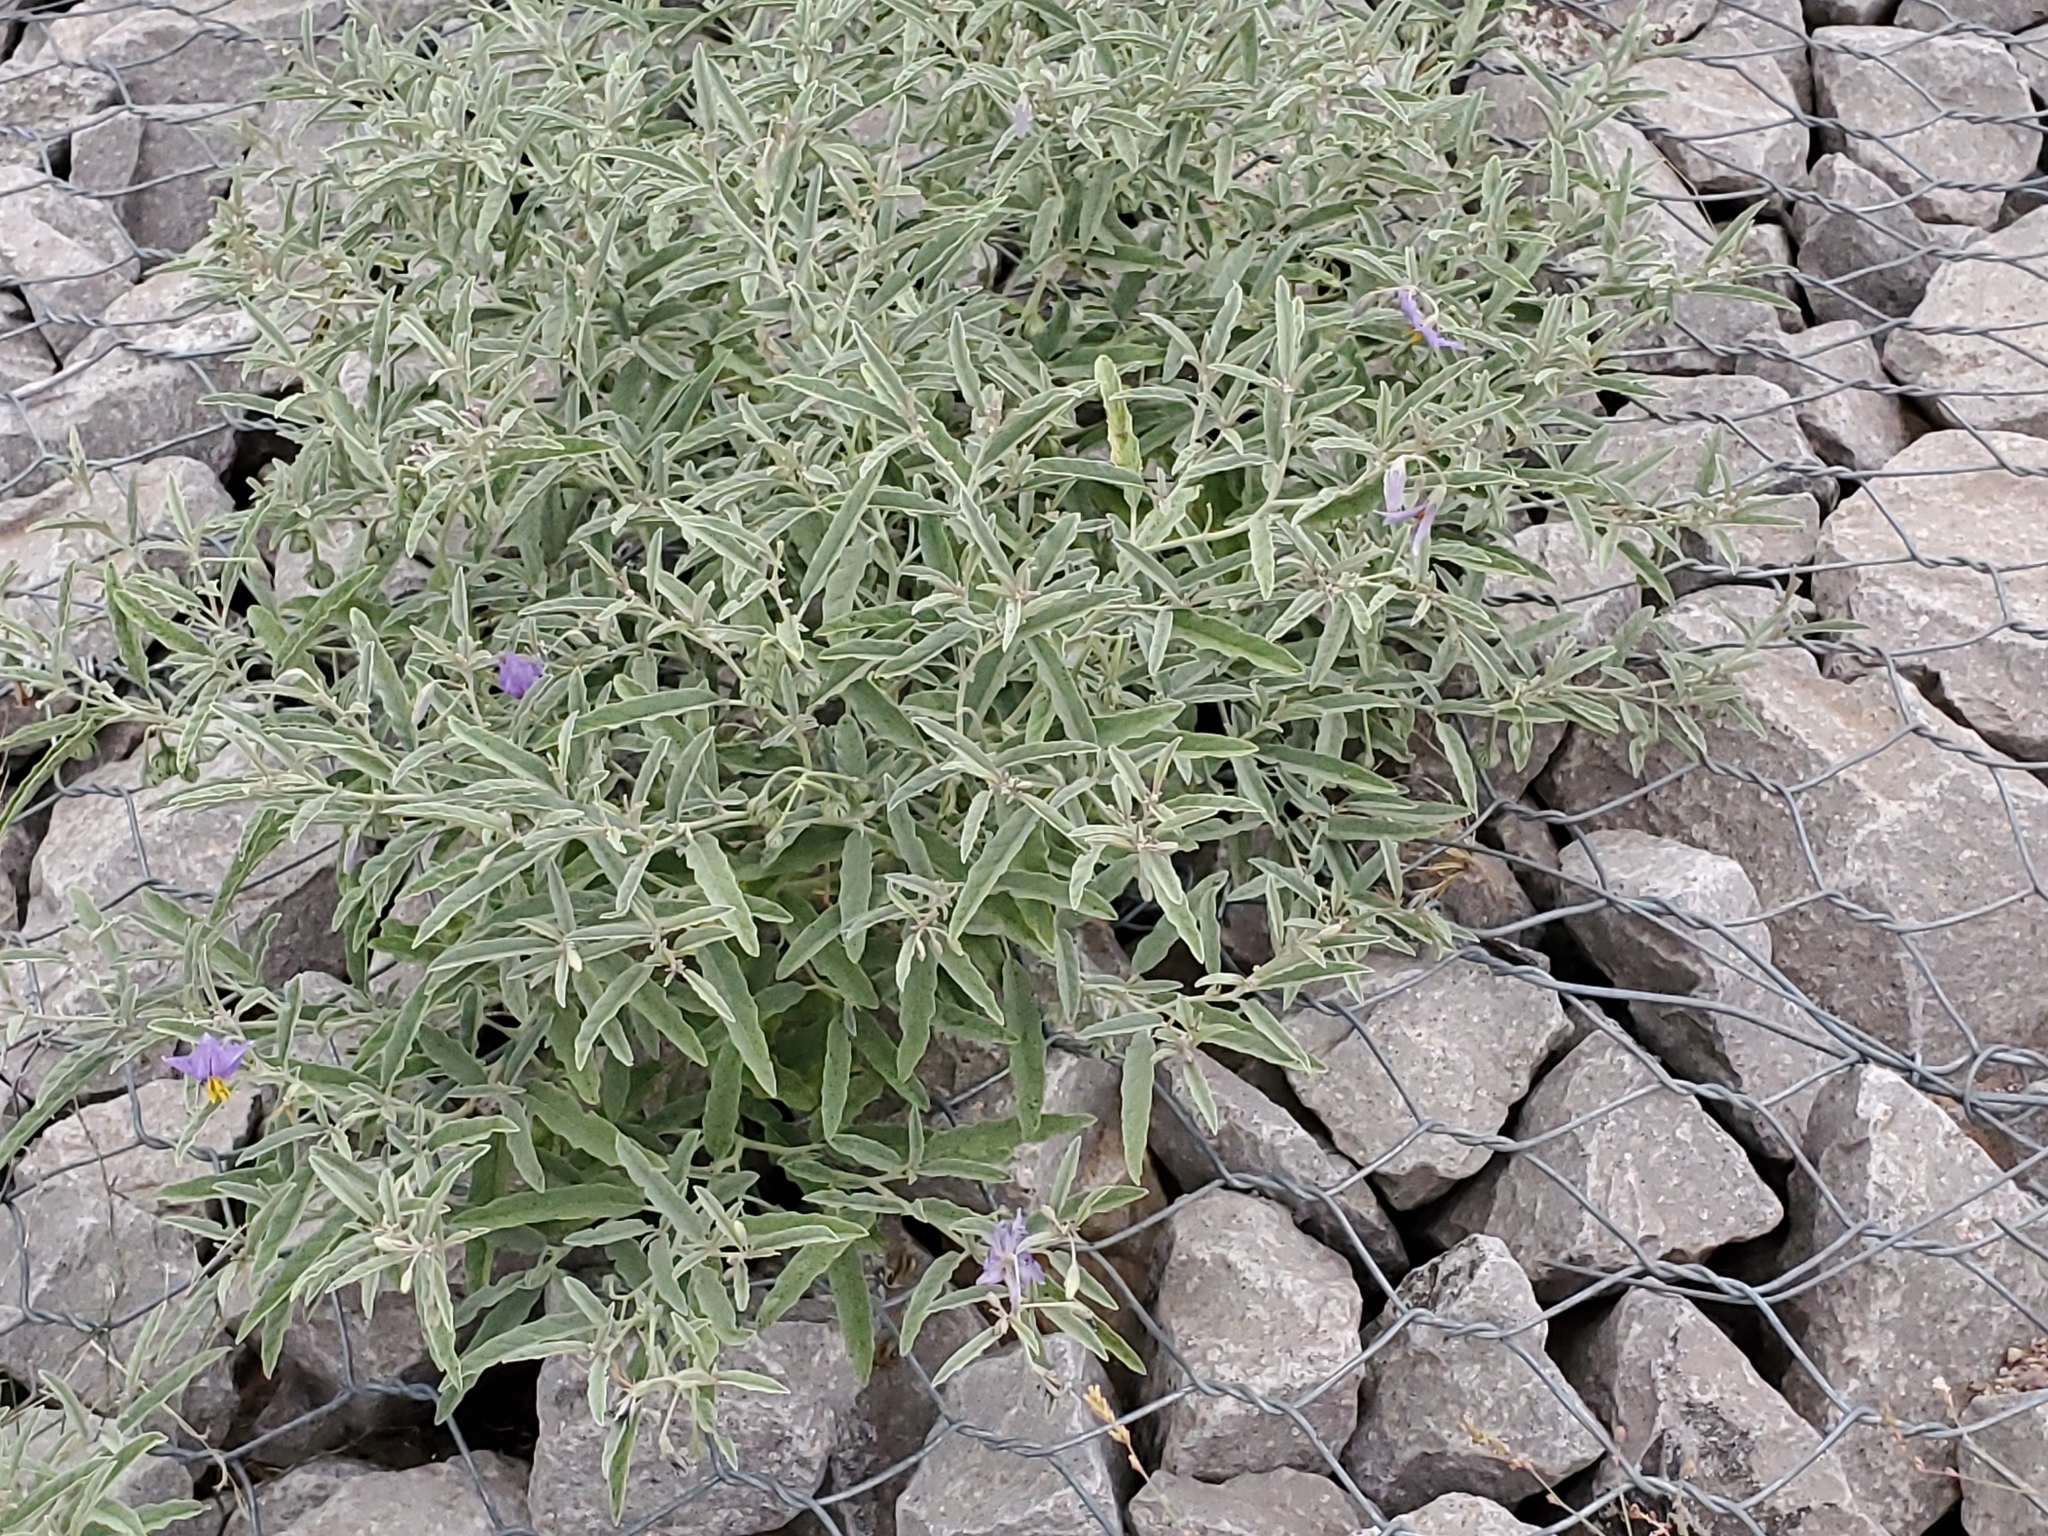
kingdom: Plantae
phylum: Tracheophyta
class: Magnoliopsida
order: Solanales
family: Solanaceae
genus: Solanum
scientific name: Solanum elaeagnifolium
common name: Silverleaf nightshade
